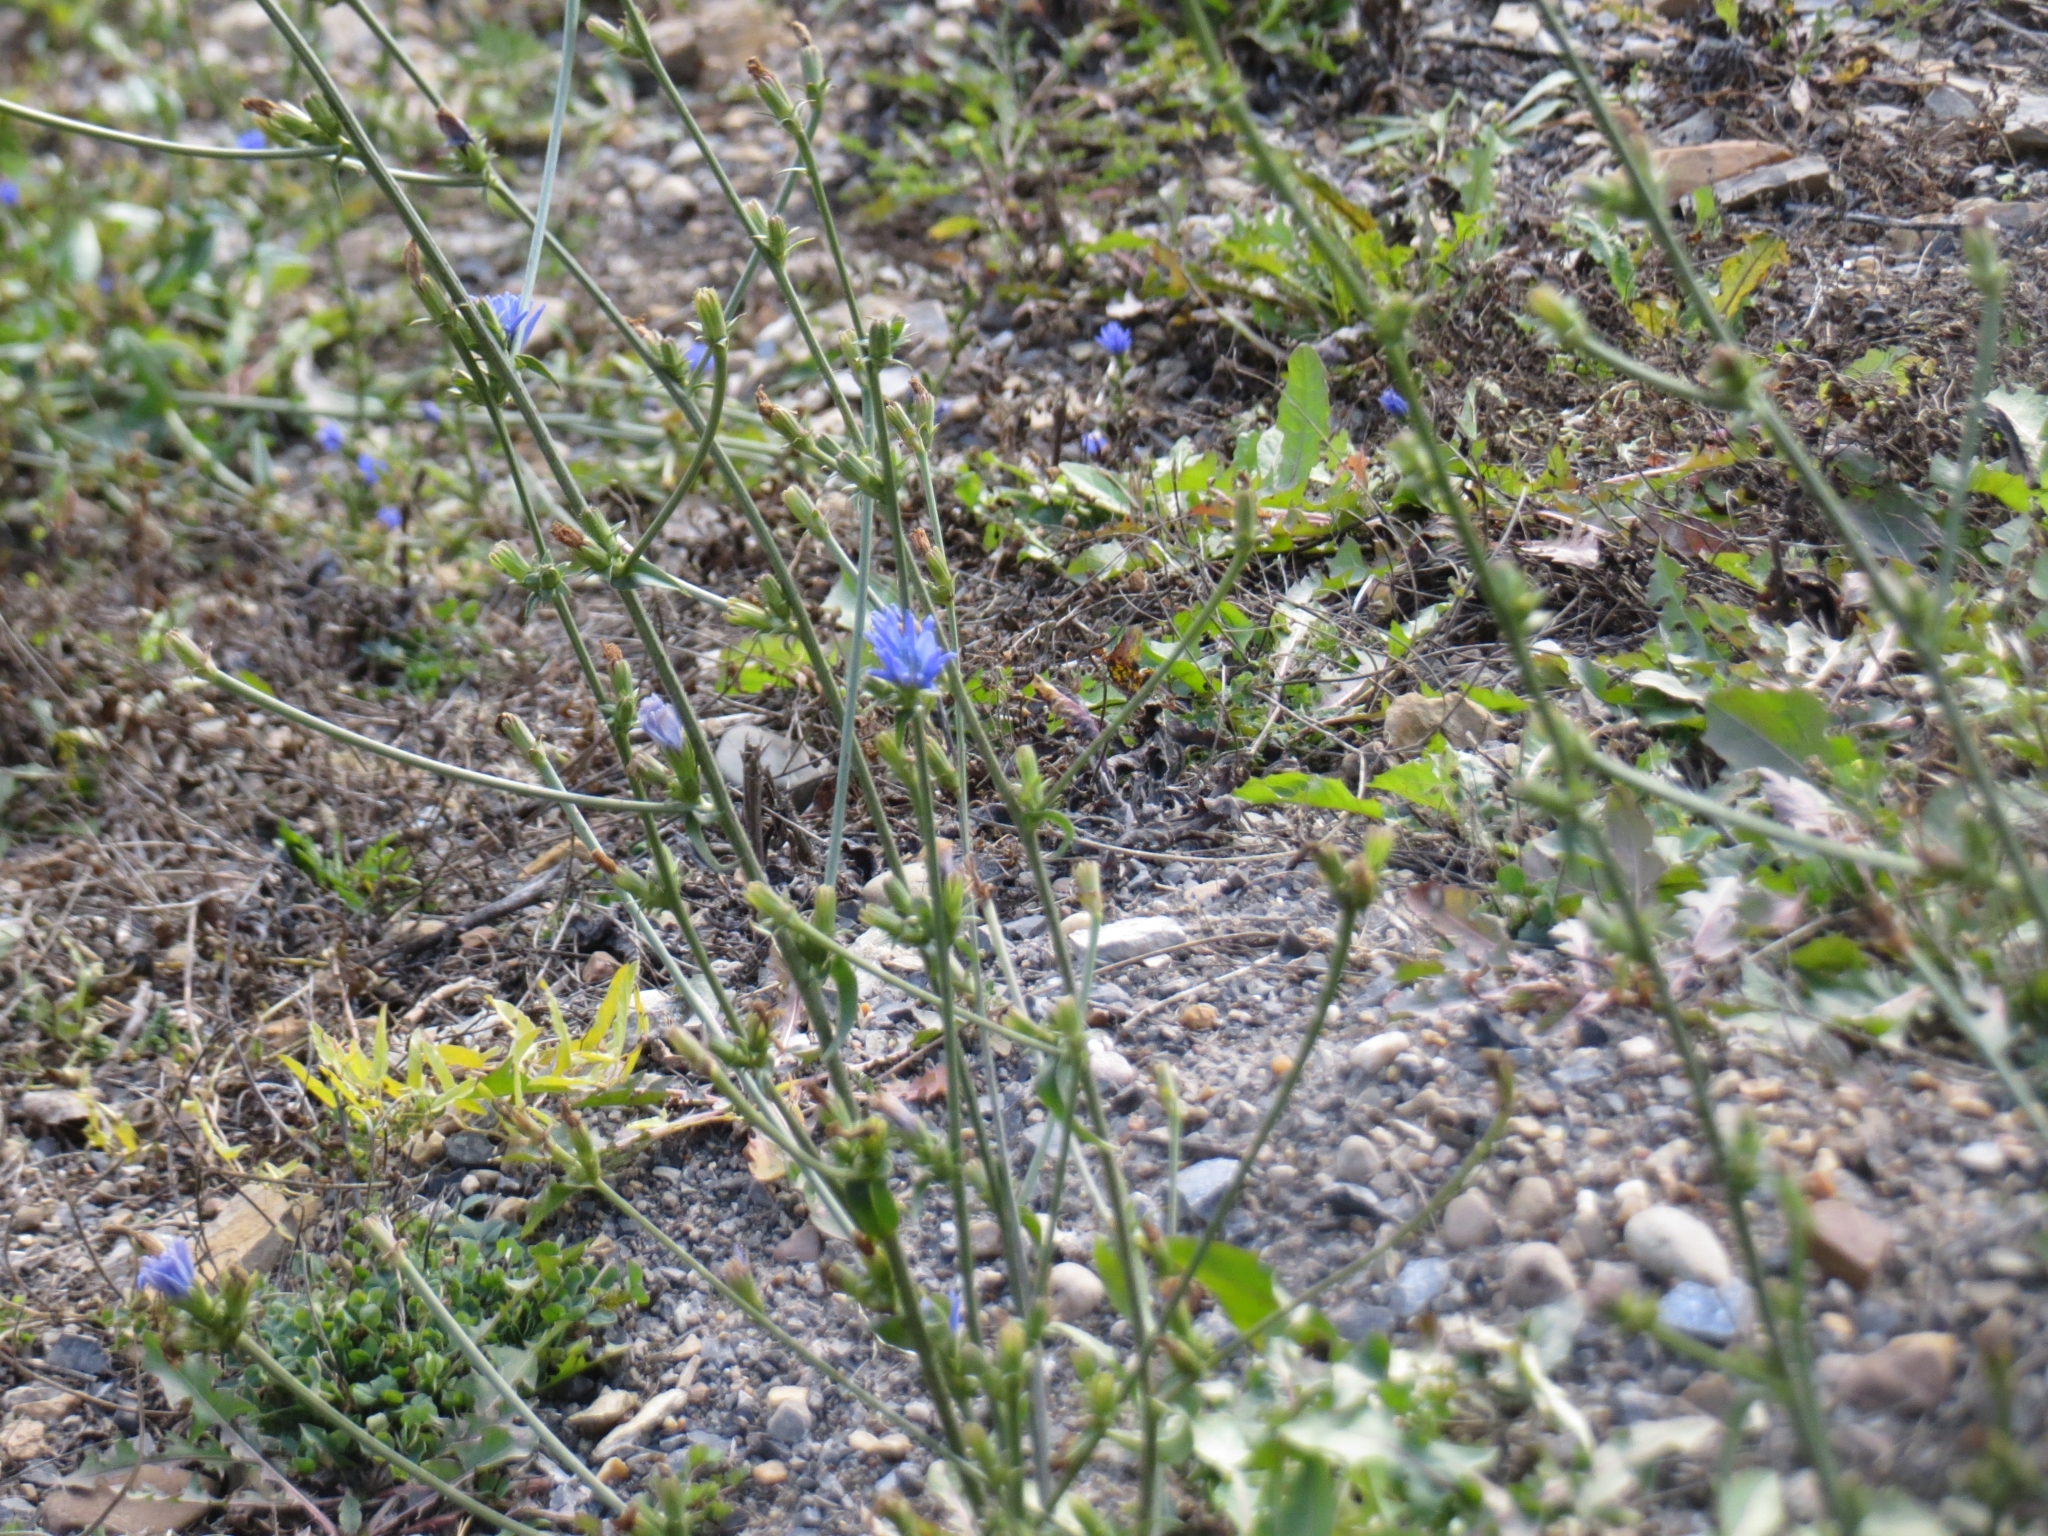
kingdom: Plantae
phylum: Tracheophyta
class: Magnoliopsida
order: Asterales
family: Asteraceae
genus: Cichorium
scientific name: Cichorium intybus
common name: Chicory
